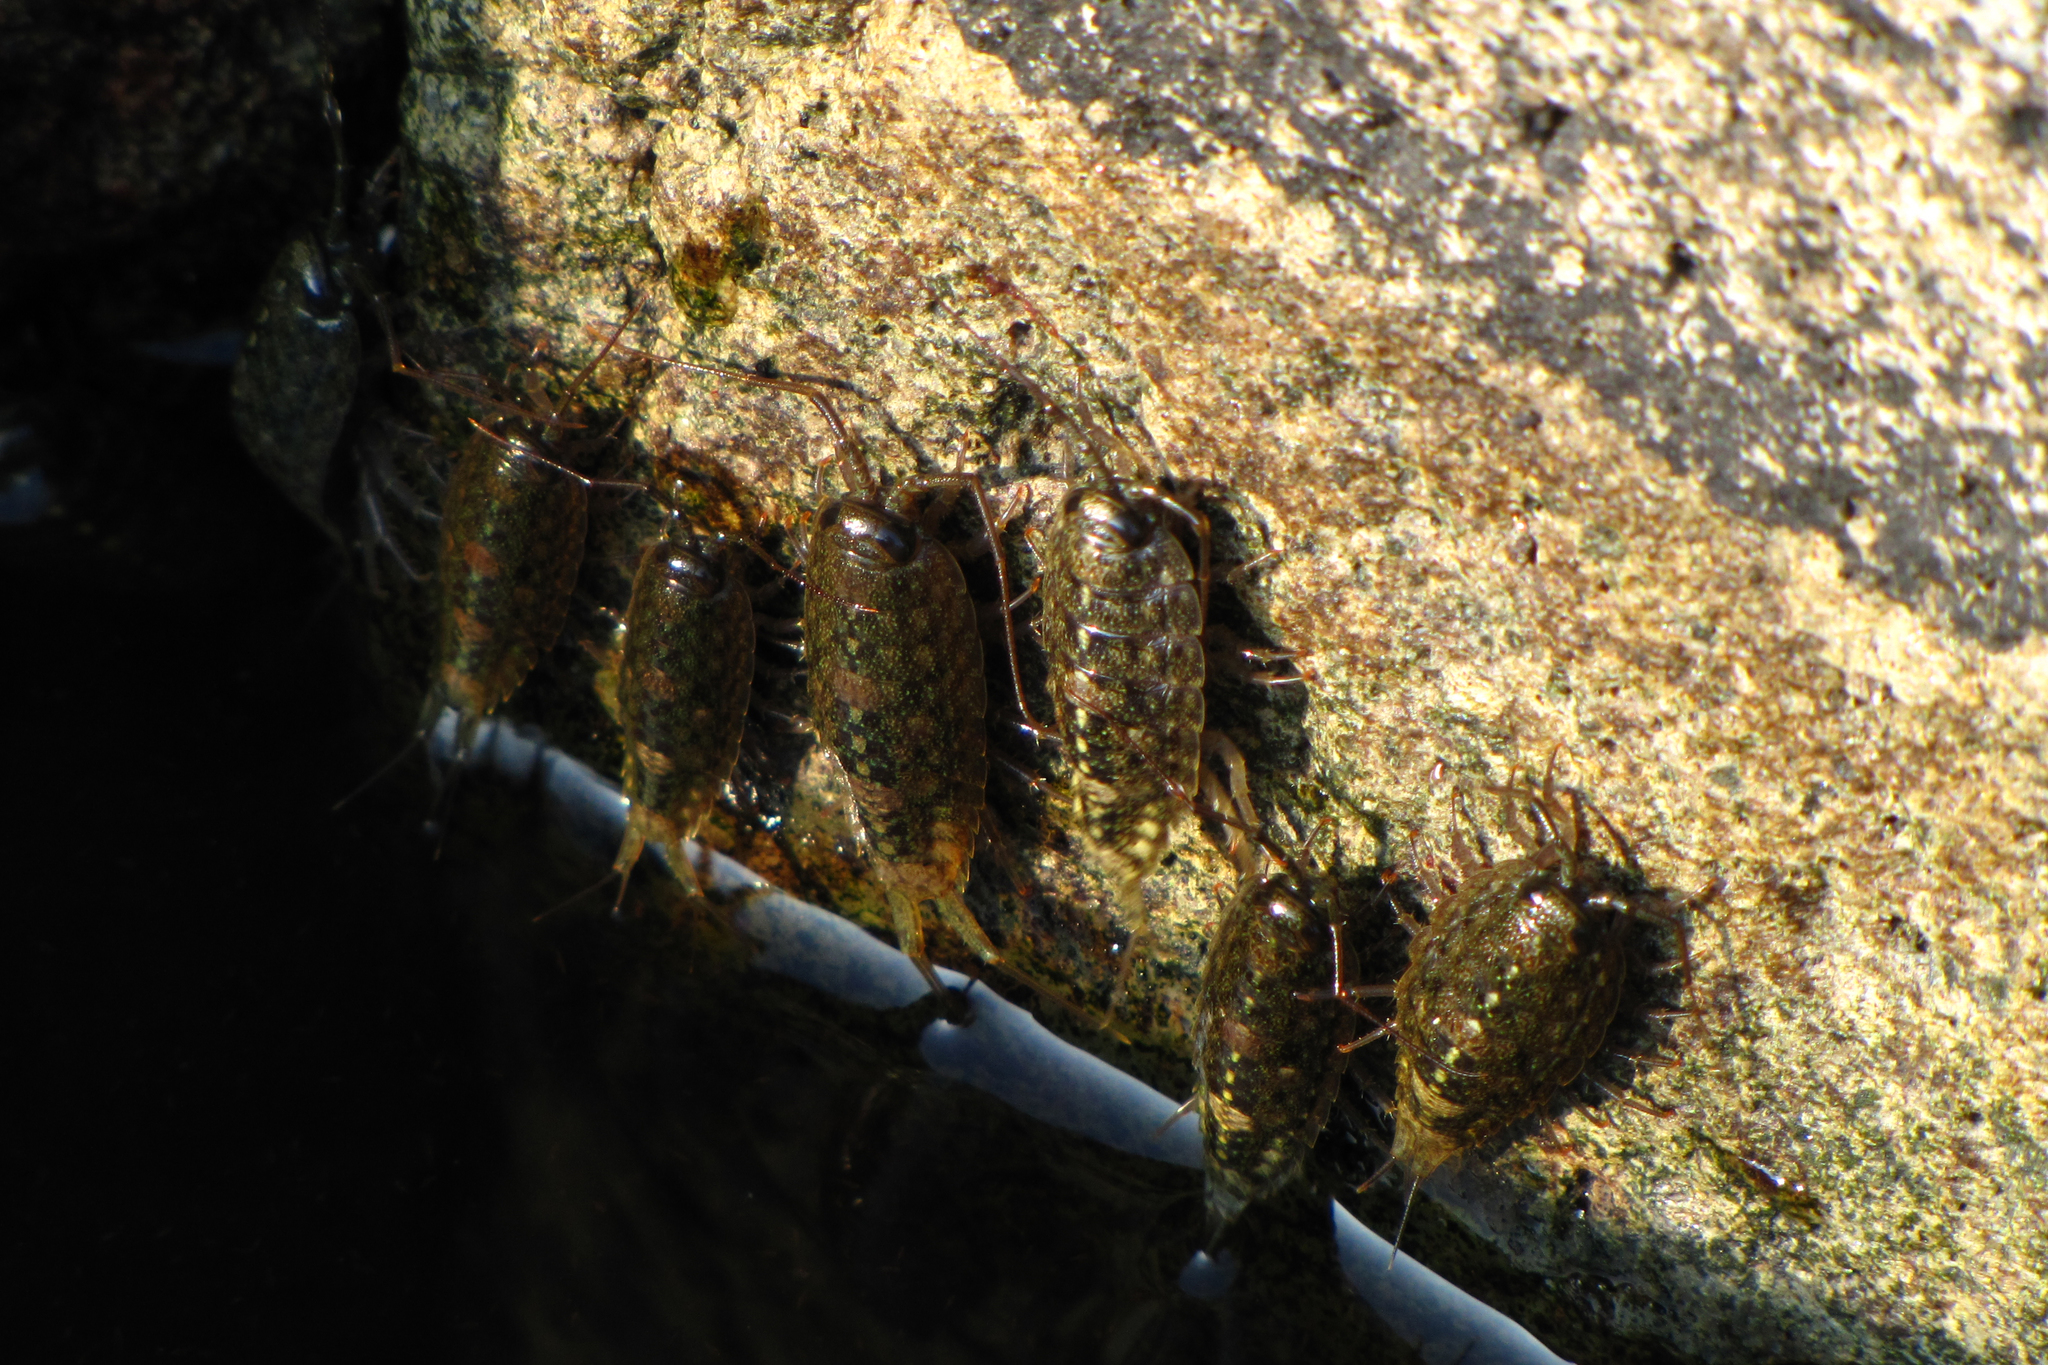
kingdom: Animalia
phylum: Arthropoda
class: Malacostraca
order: Isopoda
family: Ligiidae
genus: Ligia
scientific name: Ligia cinerascens
